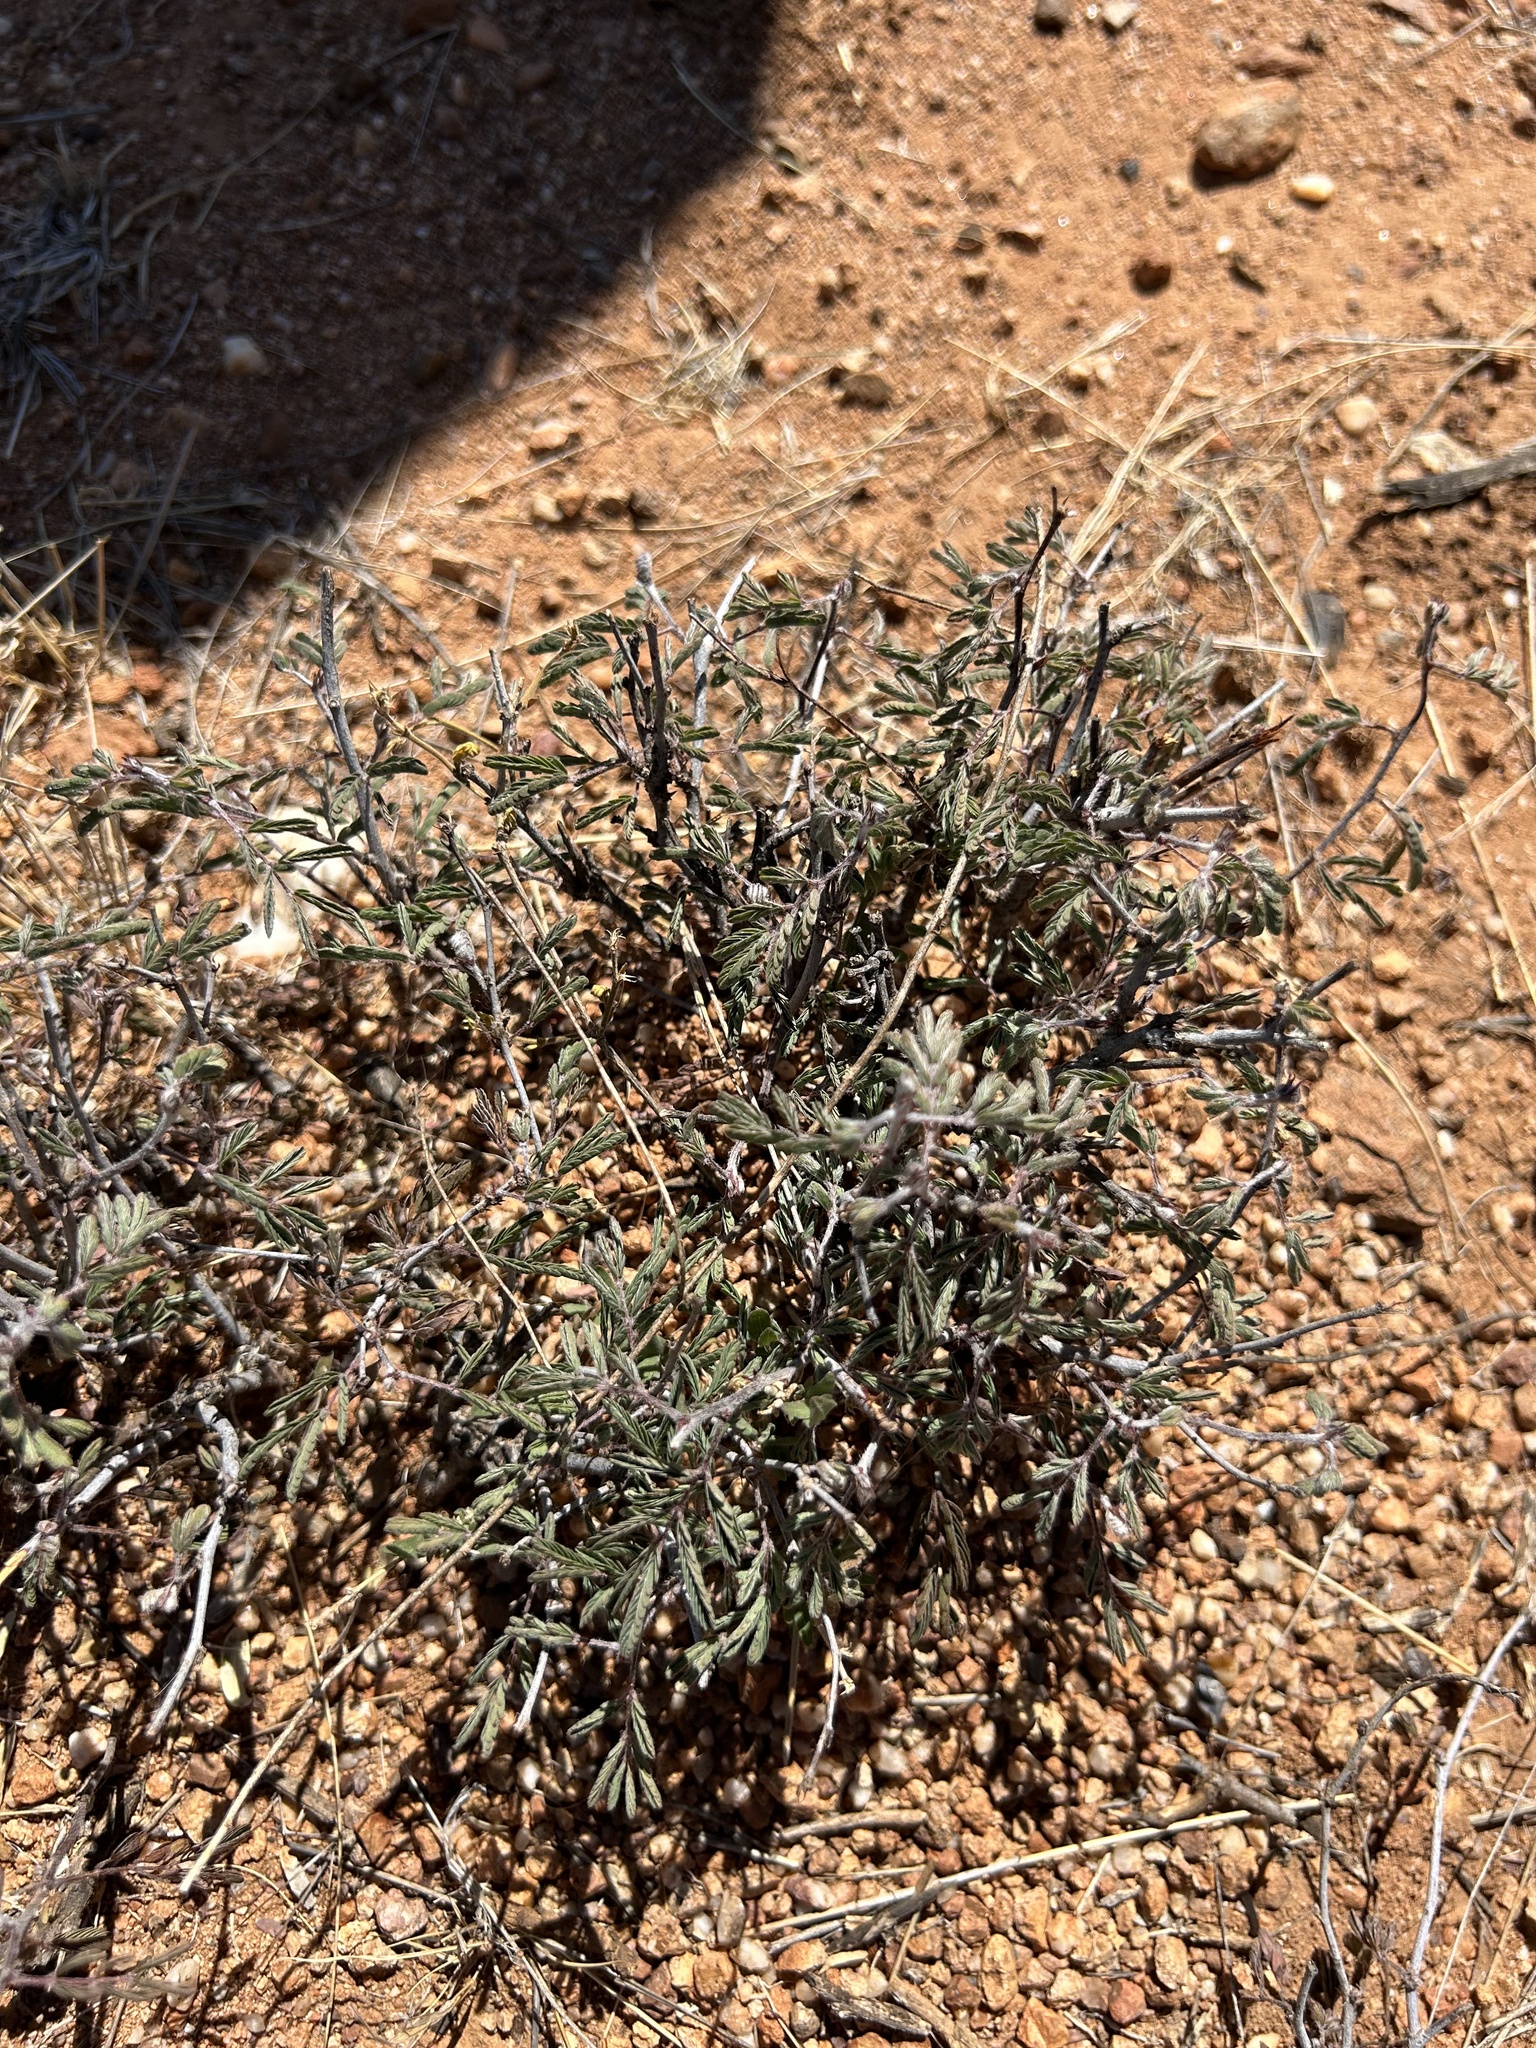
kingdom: Plantae
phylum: Tracheophyta
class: Magnoliopsida
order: Fabales
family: Fabaceae
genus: Calliandra
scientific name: Calliandra eriophylla
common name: Fairy-duster
